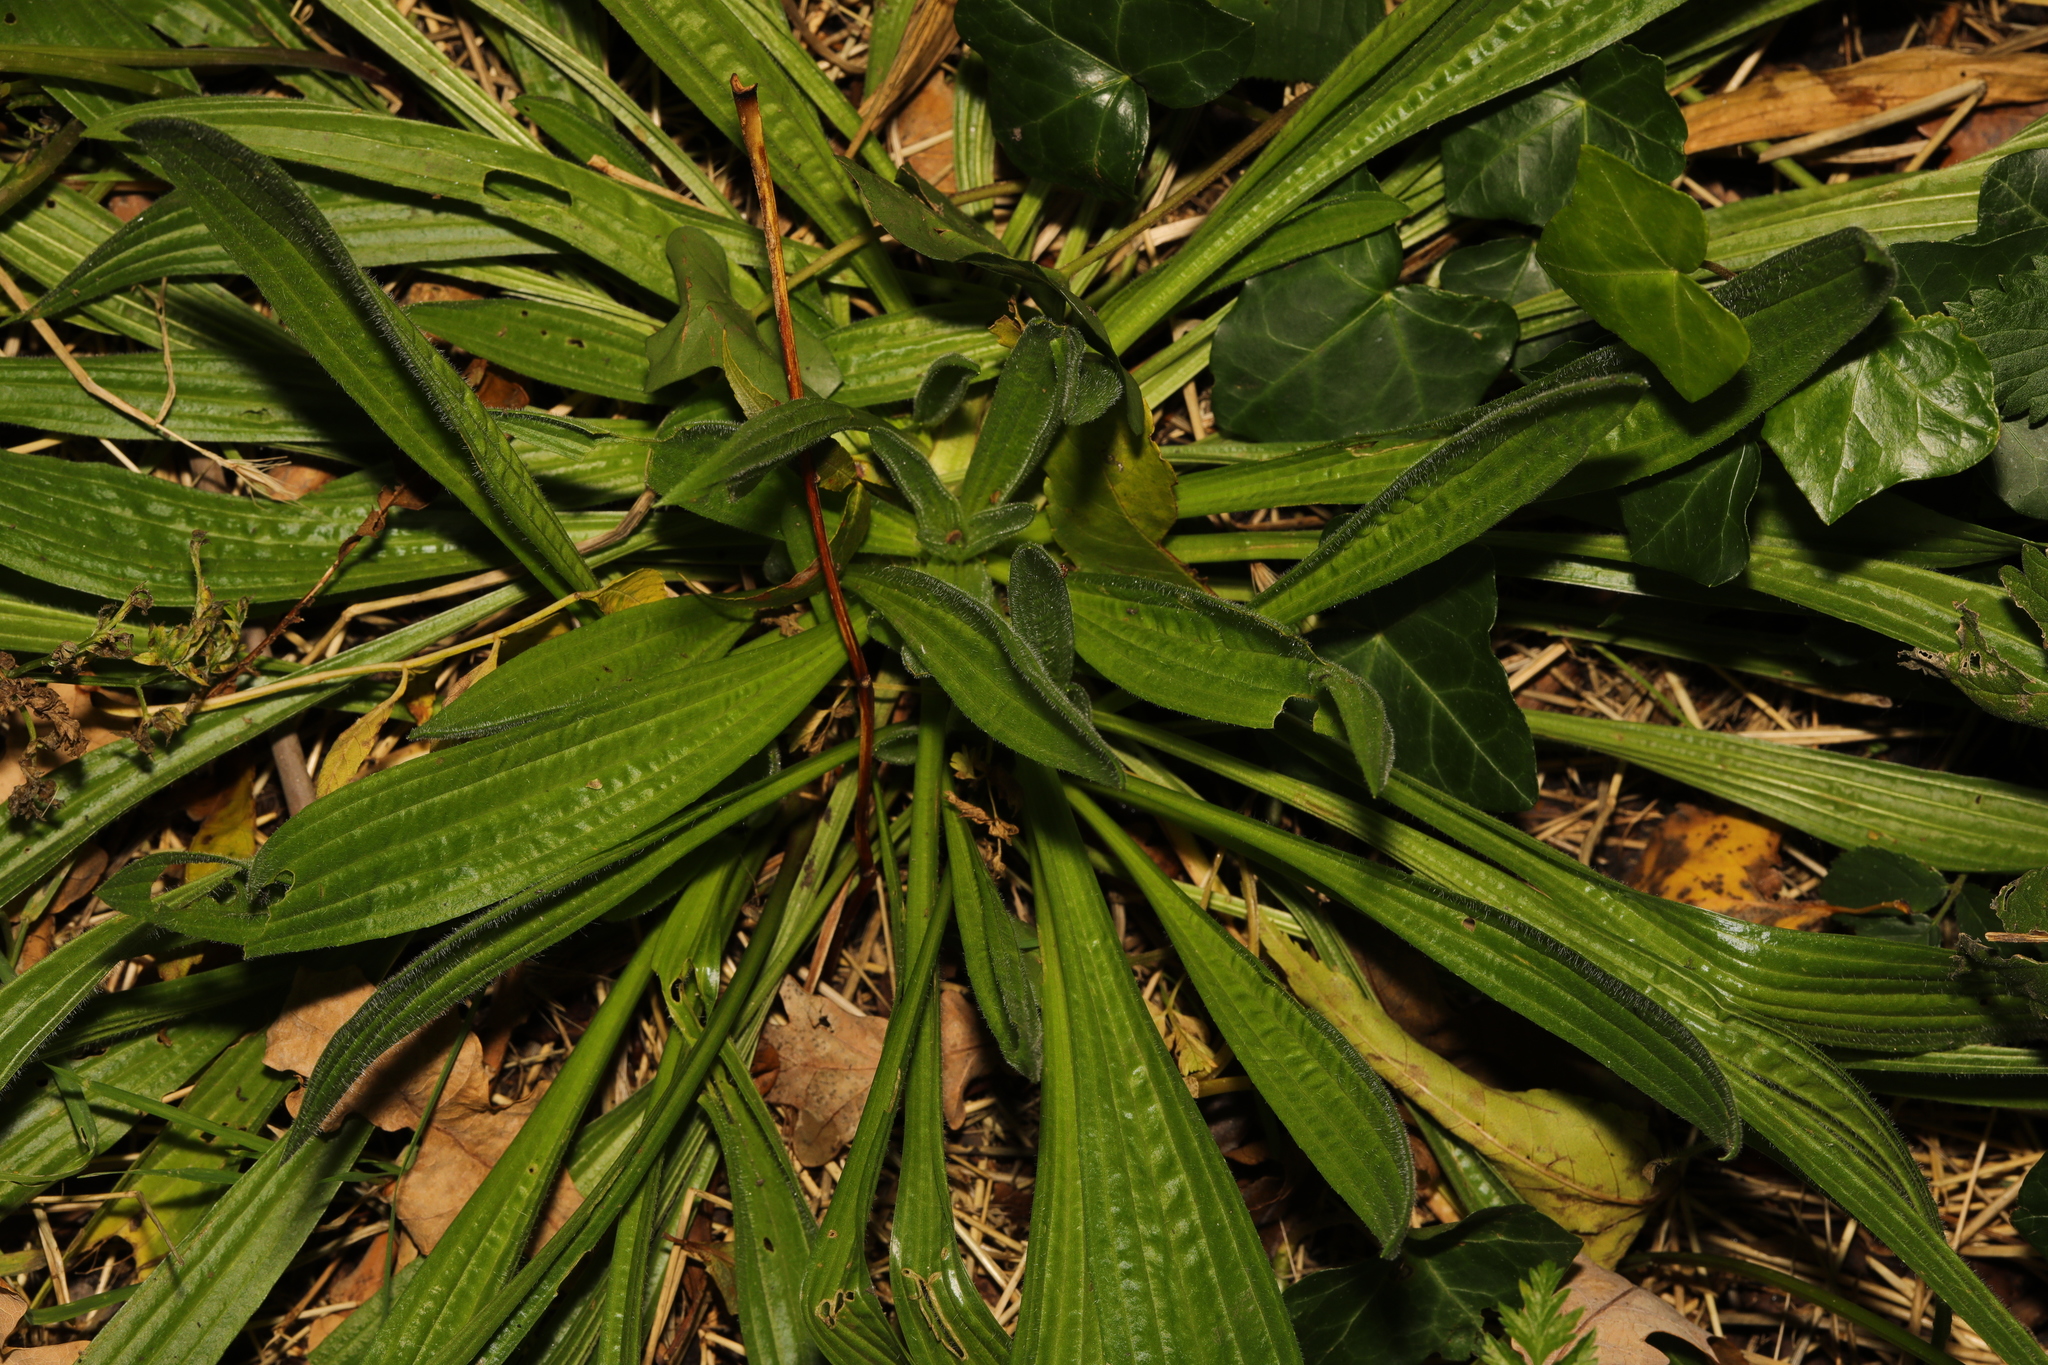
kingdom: Plantae
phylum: Tracheophyta
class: Magnoliopsida
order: Lamiales
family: Plantaginaceae
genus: Plantago
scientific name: Plantago lanceolata
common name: Ribwort plantain
